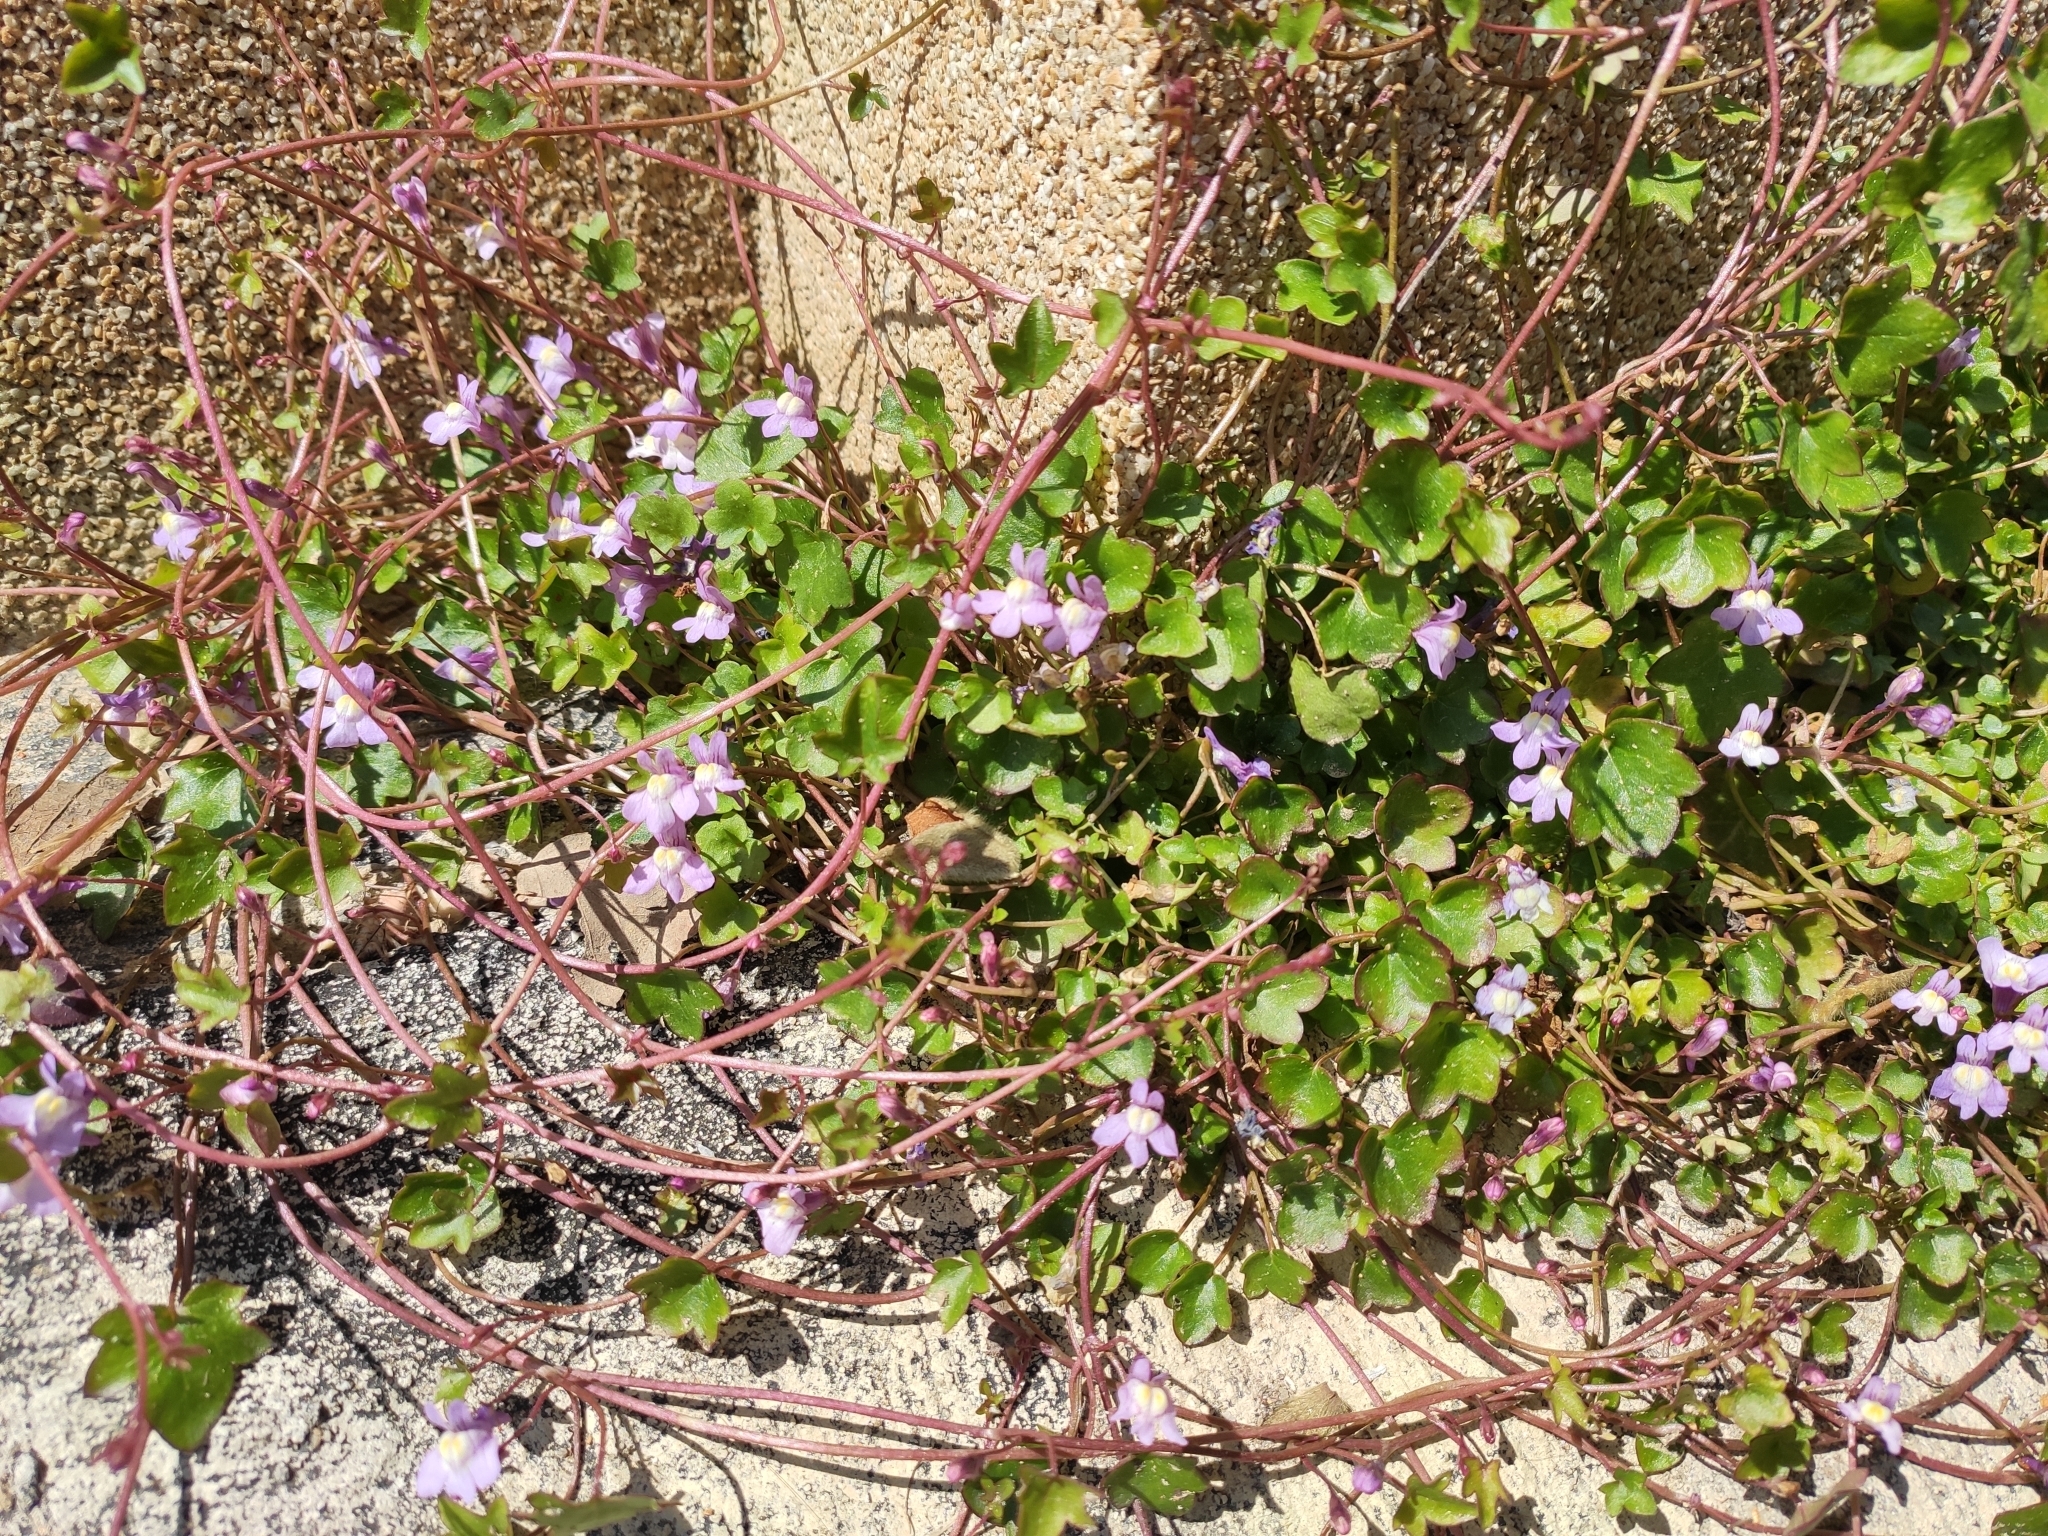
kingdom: Plantae
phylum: Tracheophyta
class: Magnoliopsida
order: Lamiales
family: Plantaginaceae
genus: Cymbalaria
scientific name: Cymbalaria muralis
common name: Ivy-leaved toadflax
